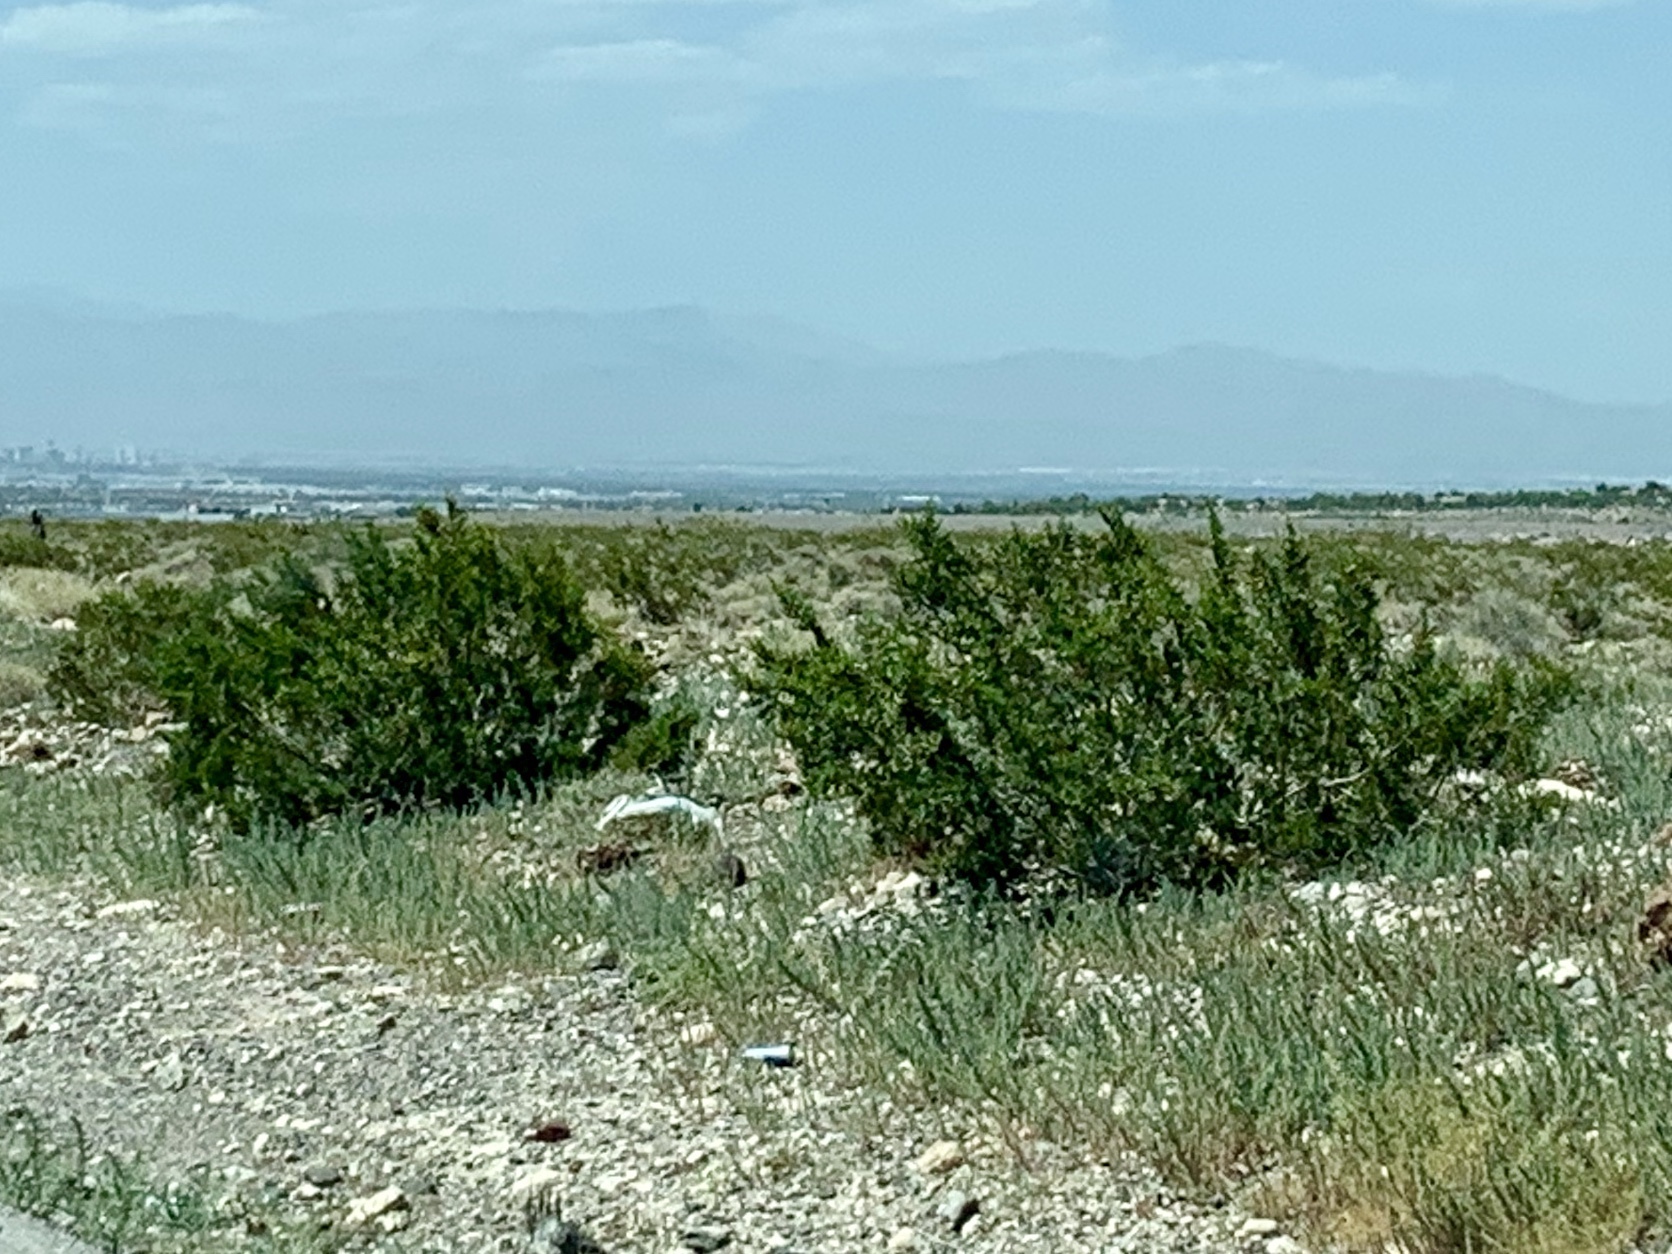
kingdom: Plantae
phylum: Tracheophyta
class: Magnoliopsida
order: Zygophyllales
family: Zygophyllaceae
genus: Larrea
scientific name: Larrea tridentata
